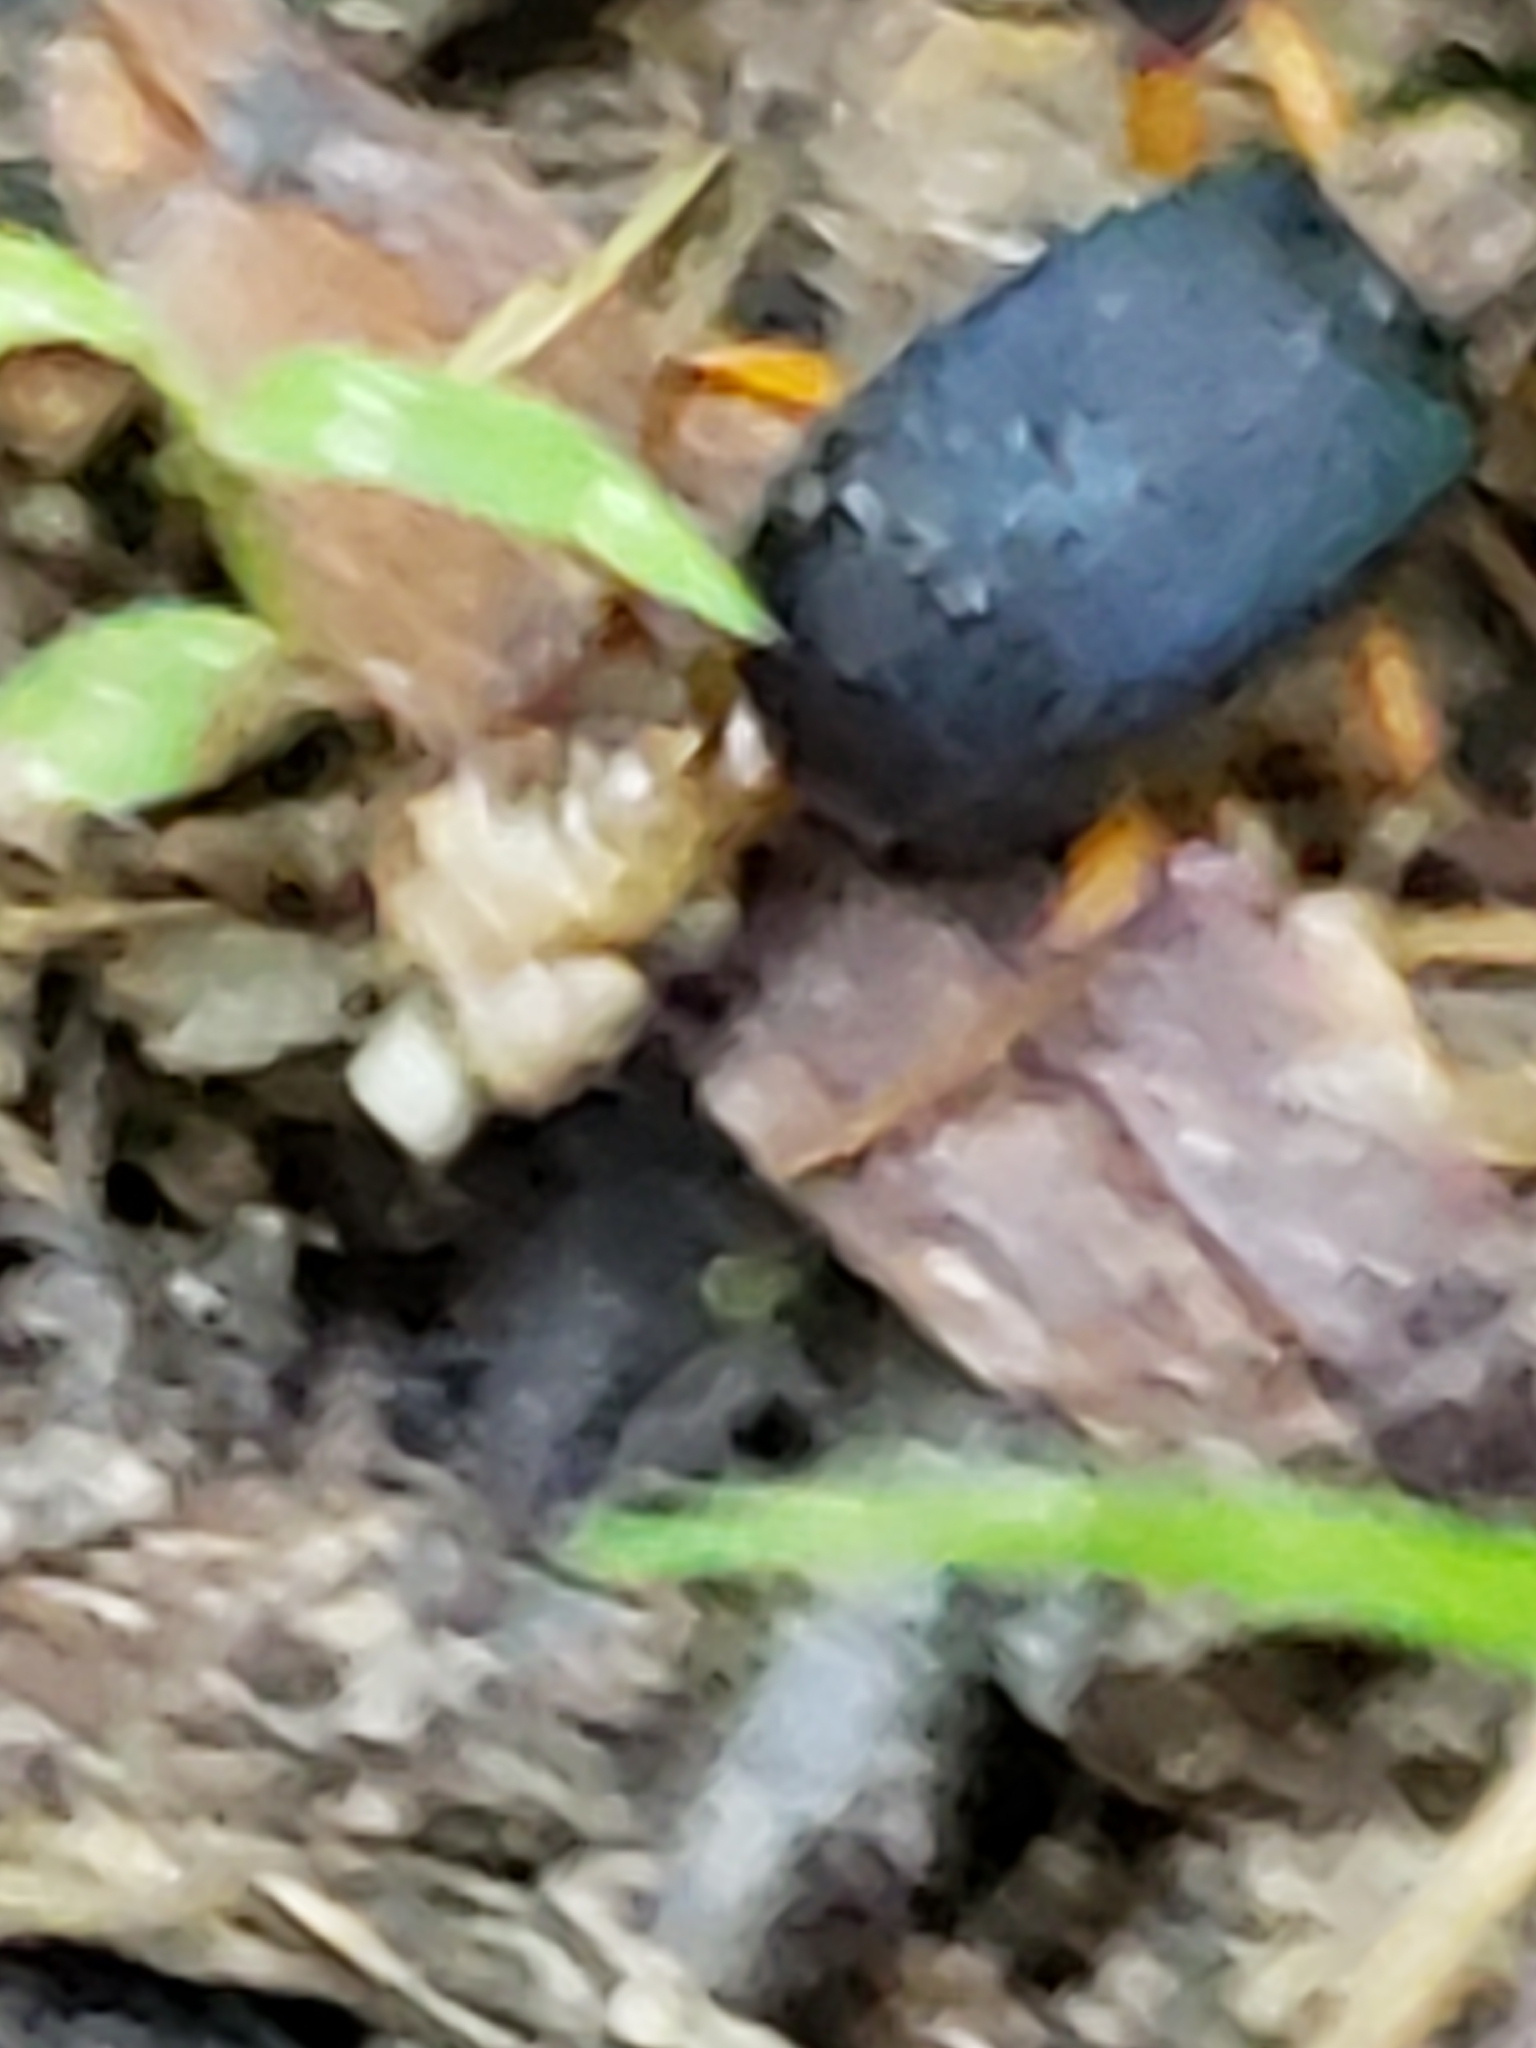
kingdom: Animalia
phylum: Arthropoda
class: Insecta
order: Coleoptera
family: Carabidae
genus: Chlaenius
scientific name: Chlaenius aestivus
